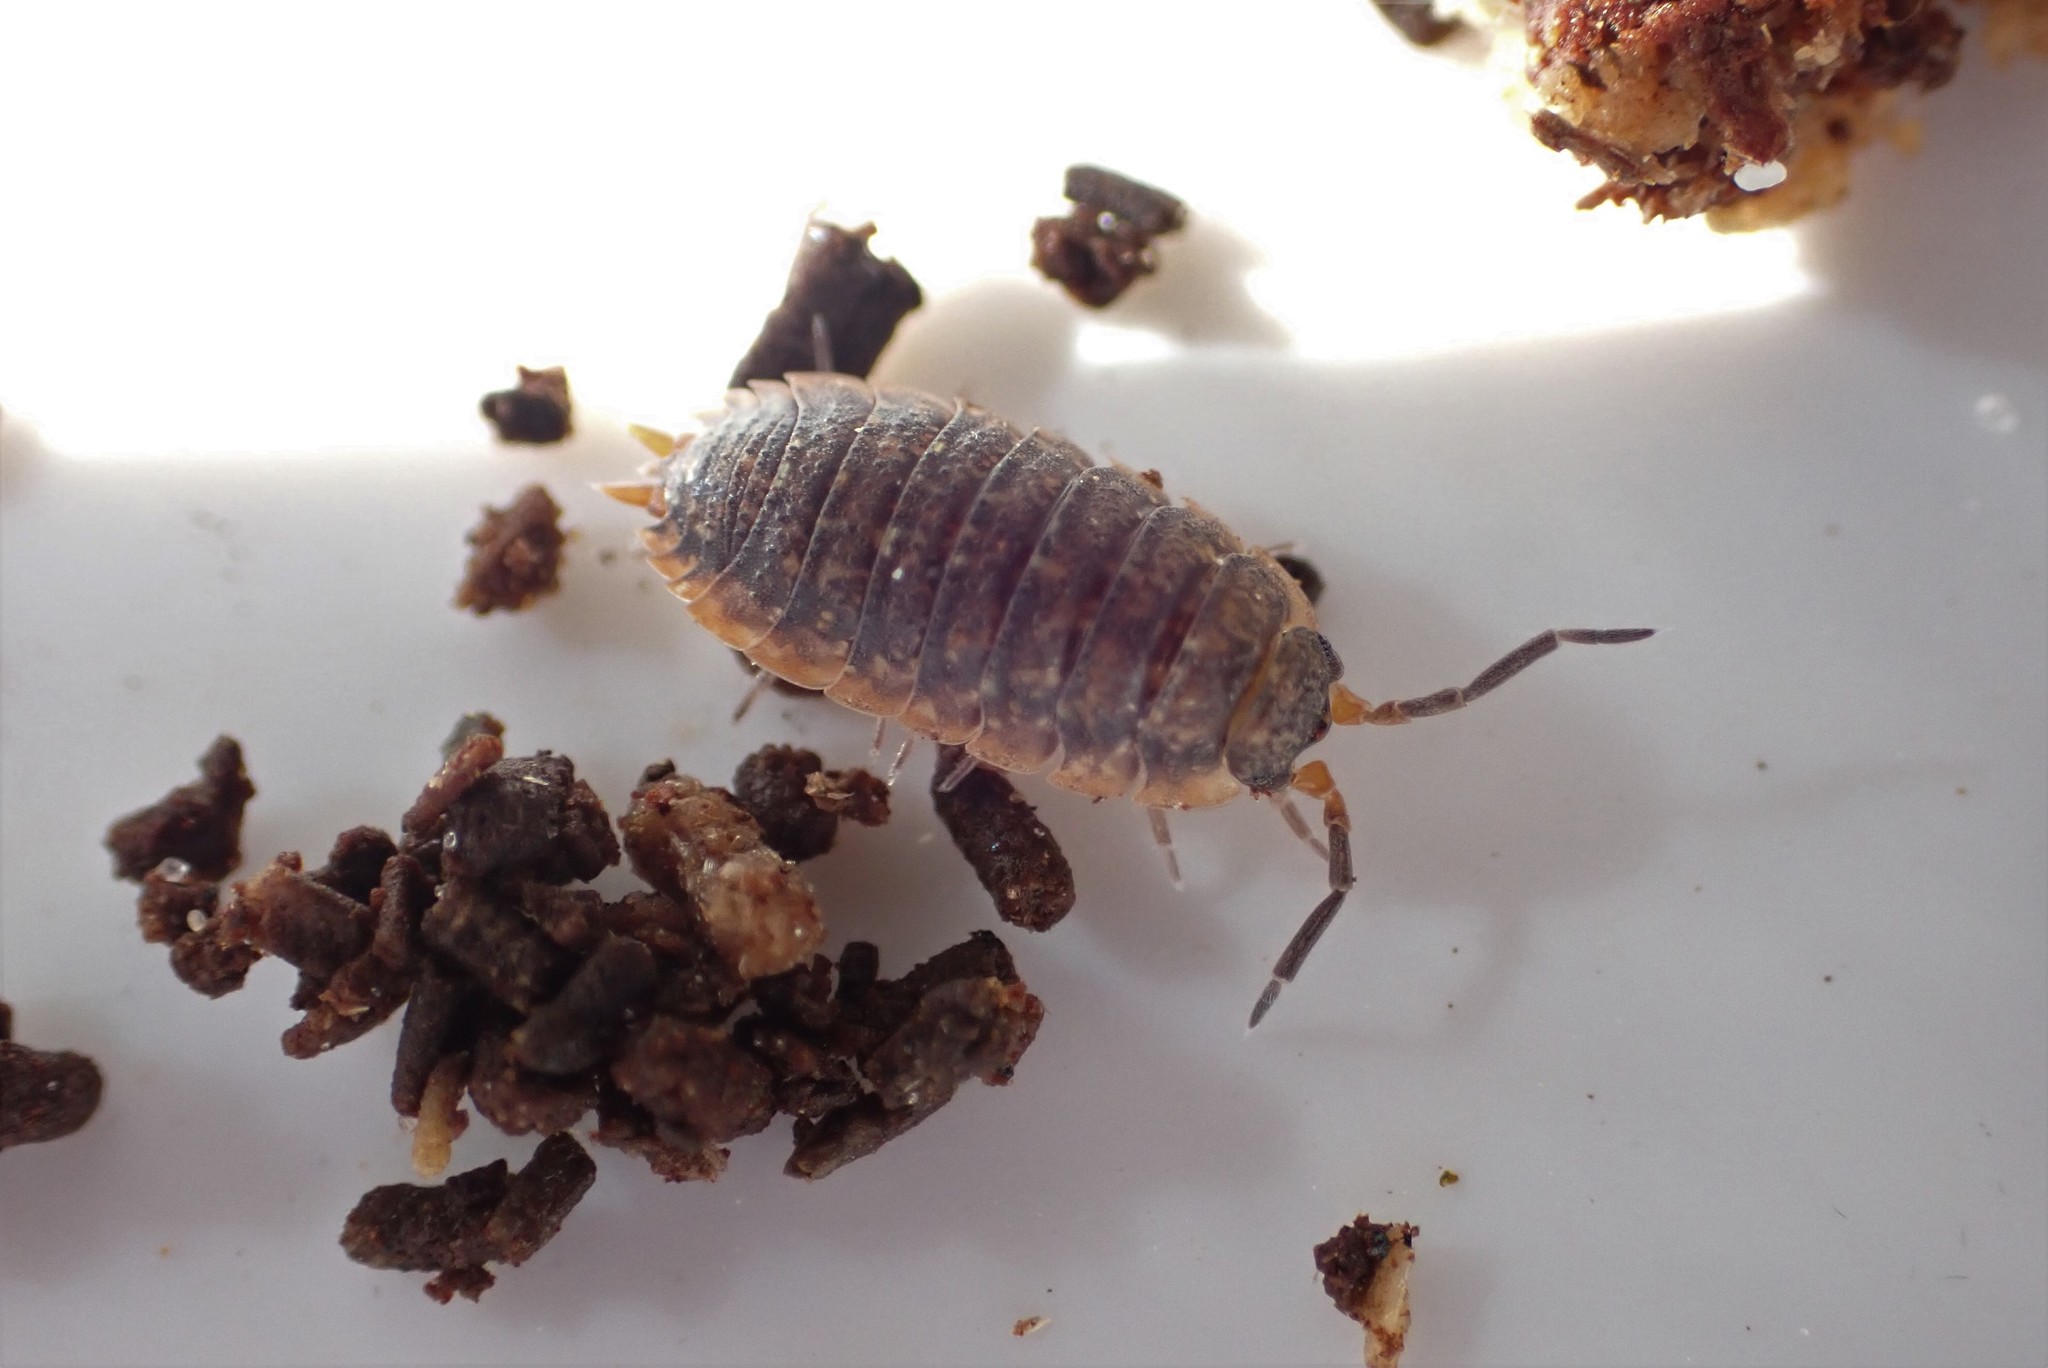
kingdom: Animalia
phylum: Arthropoda
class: Malacostraca
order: Isopoda
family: Porcellionidae
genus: Porcellio
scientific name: Porcellio scaber
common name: Common rough woodlouse
